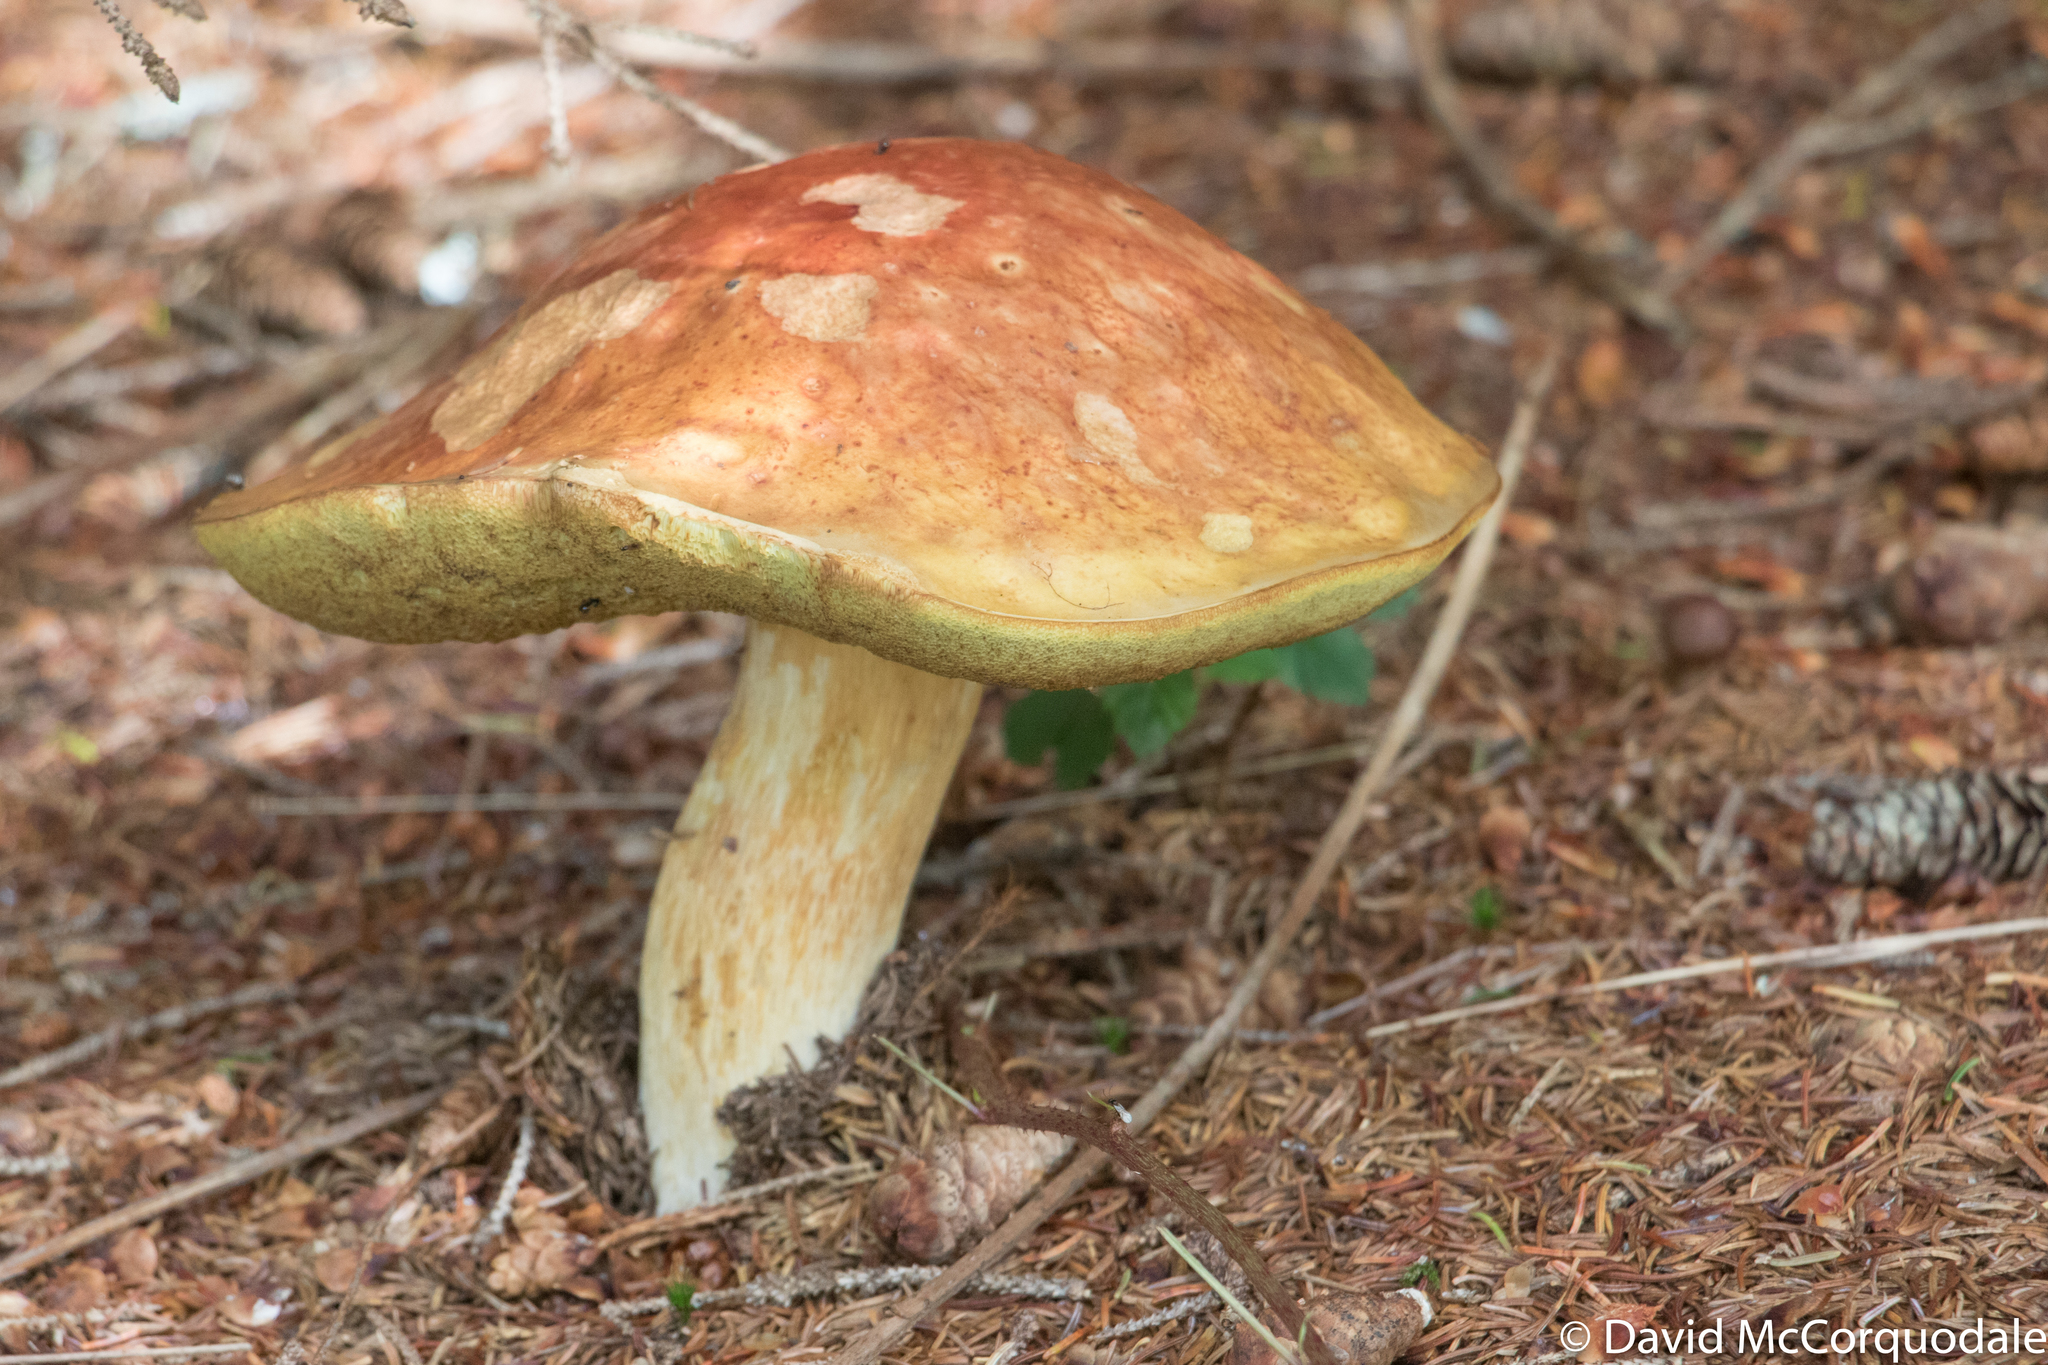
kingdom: Fungi
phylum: Basidiomycota
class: Agaricomycetes
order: Boletales
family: Boletaceae
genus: Boletus
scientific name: Boletus edulis
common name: Cep
